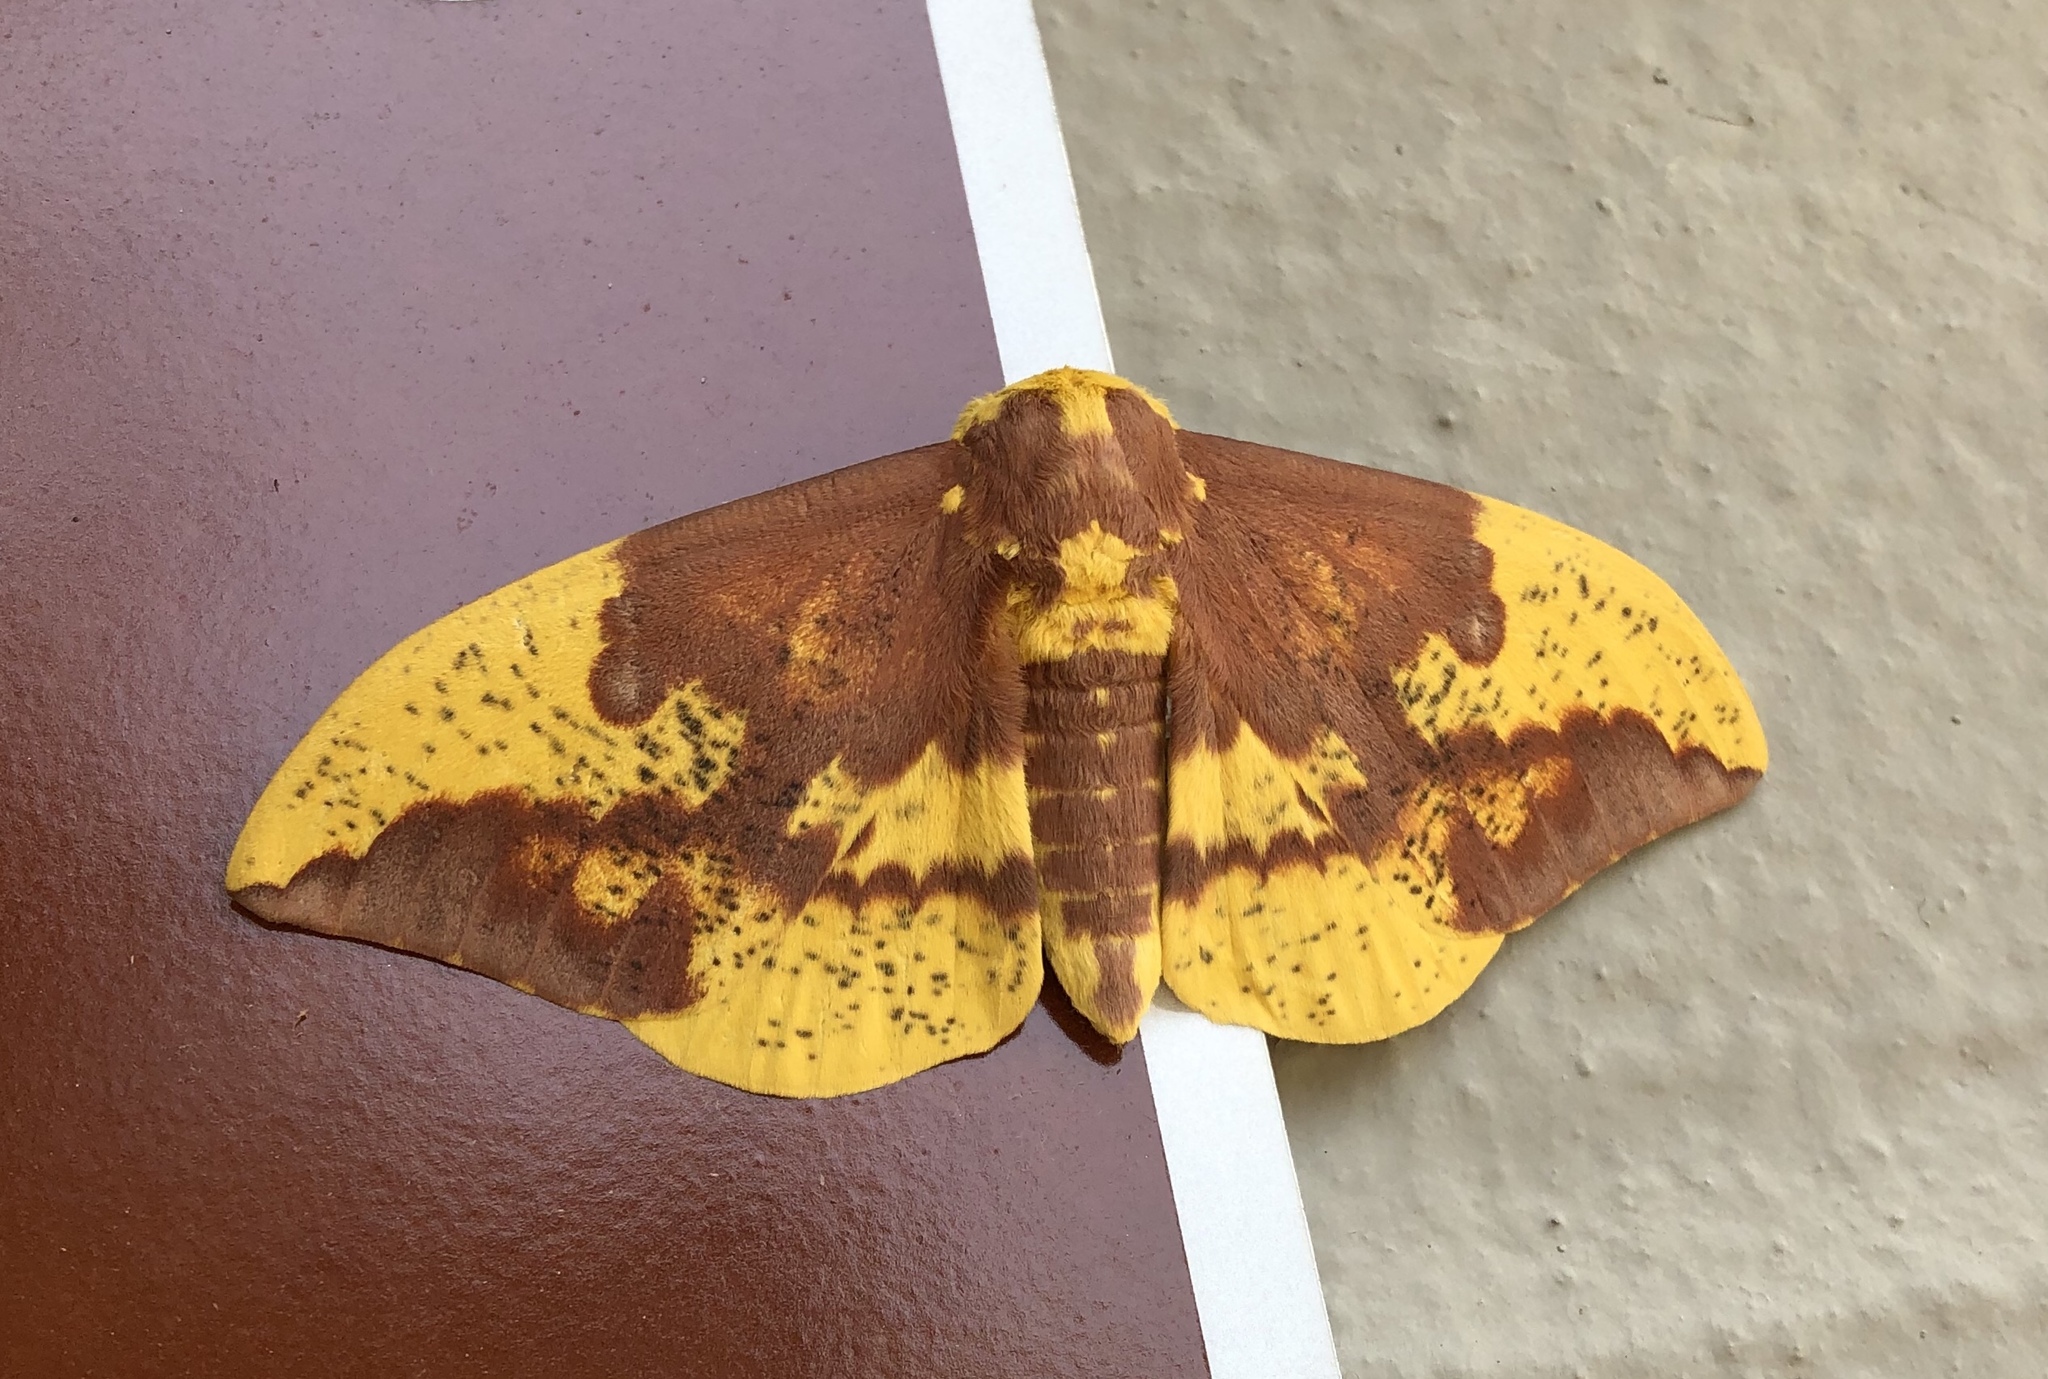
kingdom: Animalia
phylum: Arthropoda
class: Insecta
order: Lepidoptera
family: Saturniidae
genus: Eacles
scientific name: Eacles imperialis
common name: Imperial moth
